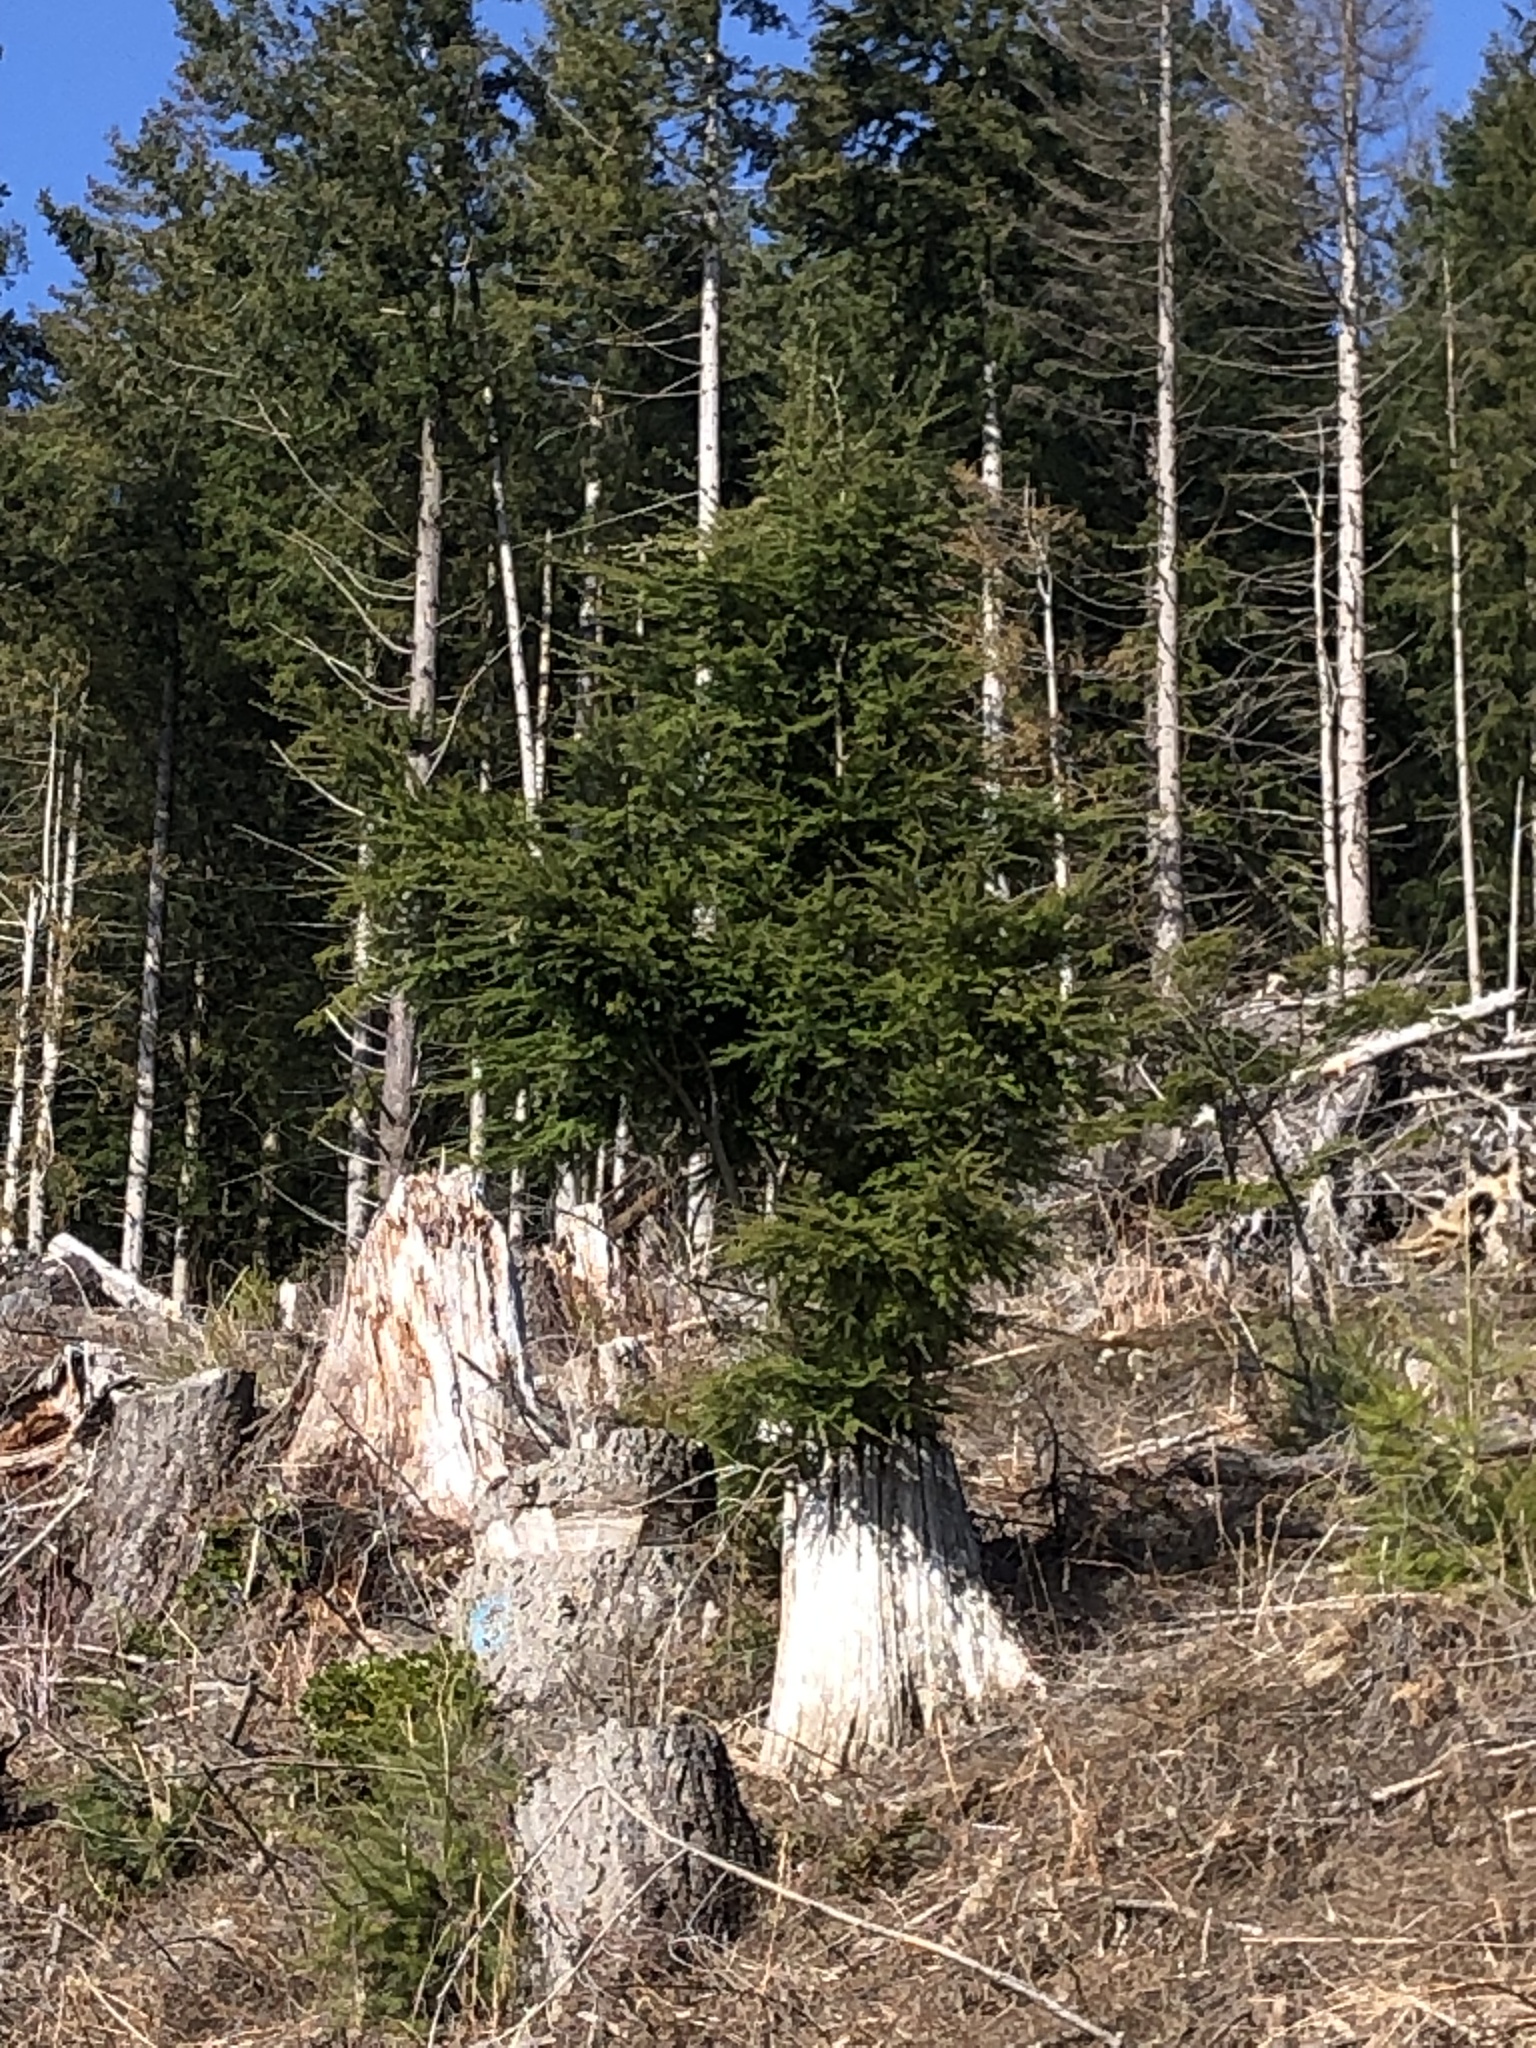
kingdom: Plantae
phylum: Tracheophyta
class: Pinopsida
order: Pinales
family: Pinaceae
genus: Tsuga
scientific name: Tsuga heterophylla
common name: Western hemlock
